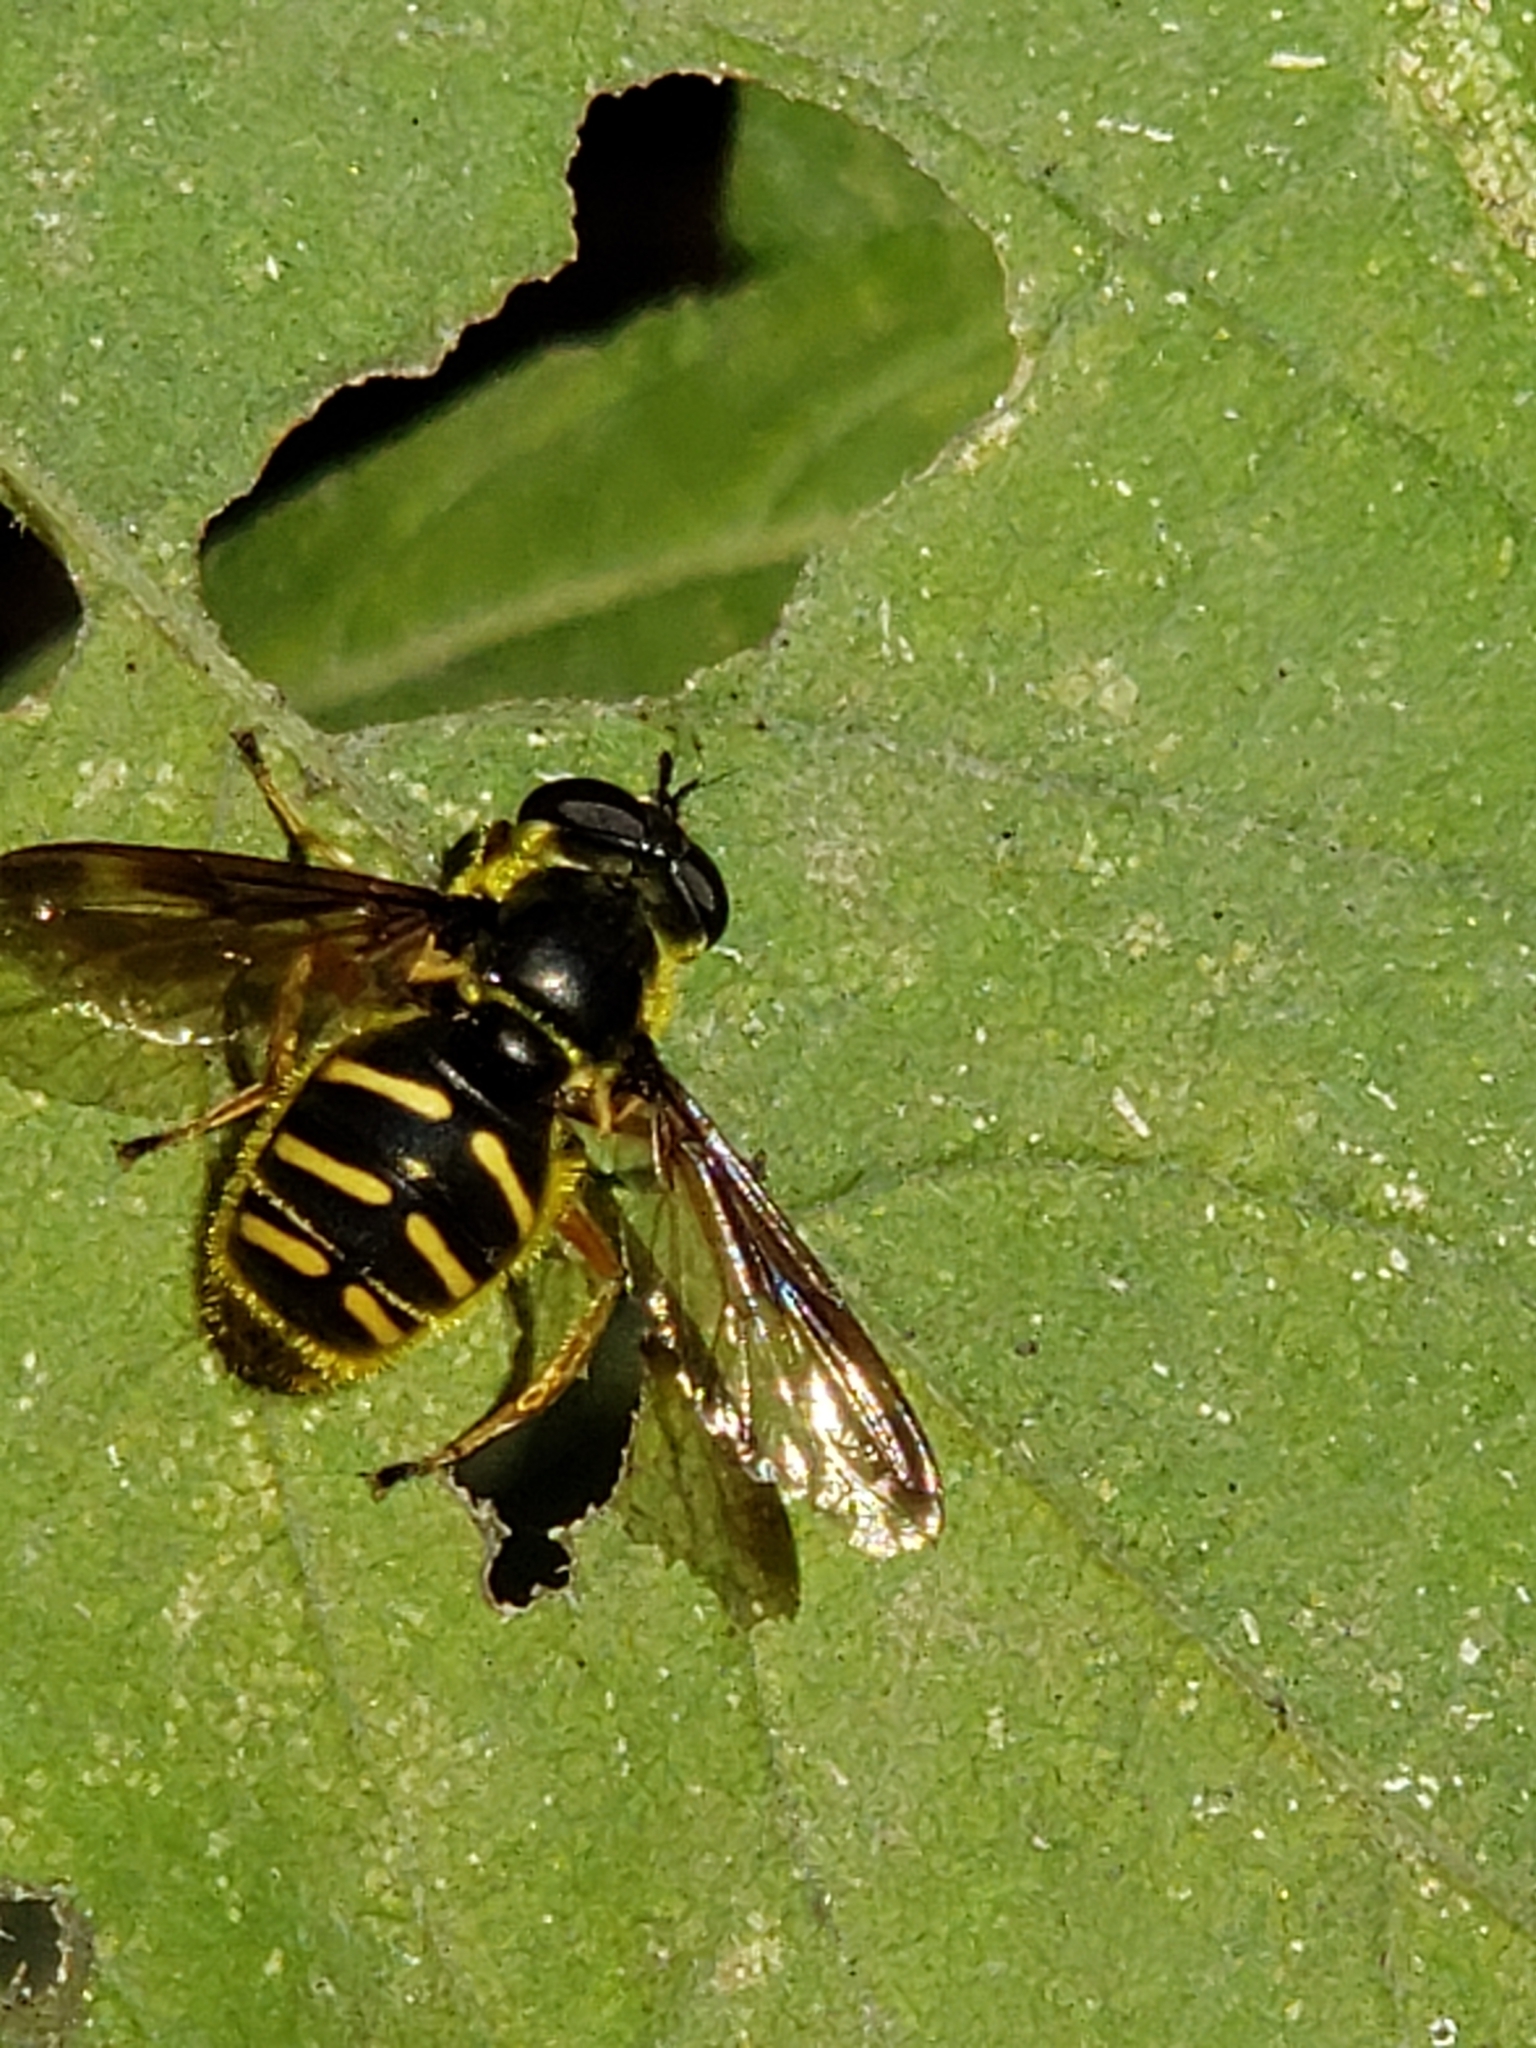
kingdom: Animalia
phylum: Arthropoda
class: Insecta
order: Diptera
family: Syrphidae
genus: Sericomyia
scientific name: Sericomyia chrysotoxoides
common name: Oblique-banded pond fly
